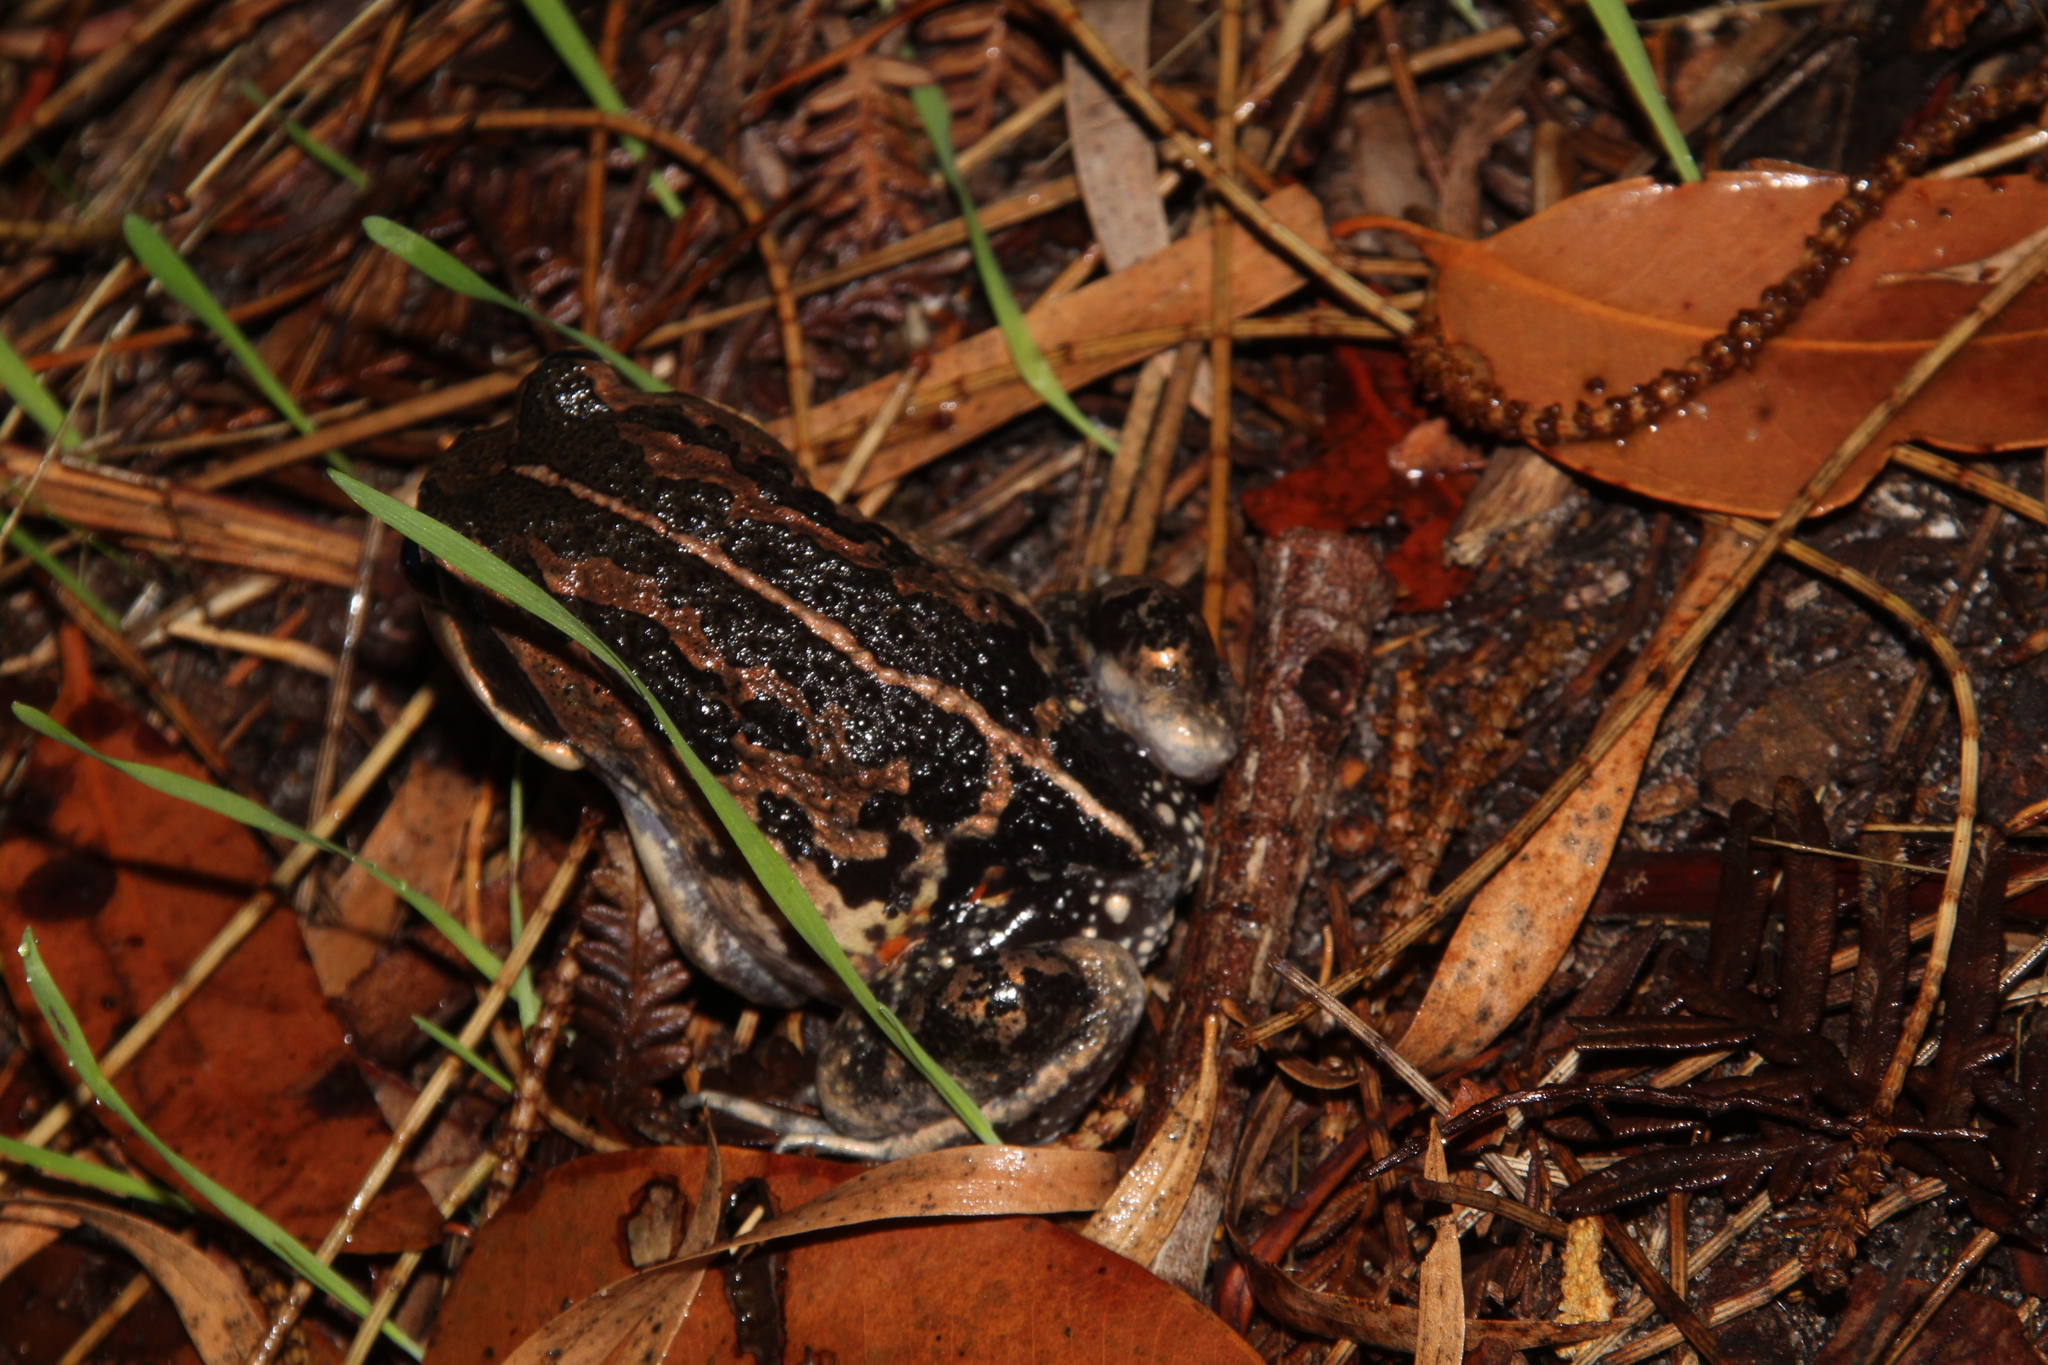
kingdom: Animalia
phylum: Chordata
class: Amphibia
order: Anura
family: Limnodynastidae
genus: Limnodynastes
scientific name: Limnodynastes dorsalis
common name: Banjo frog
